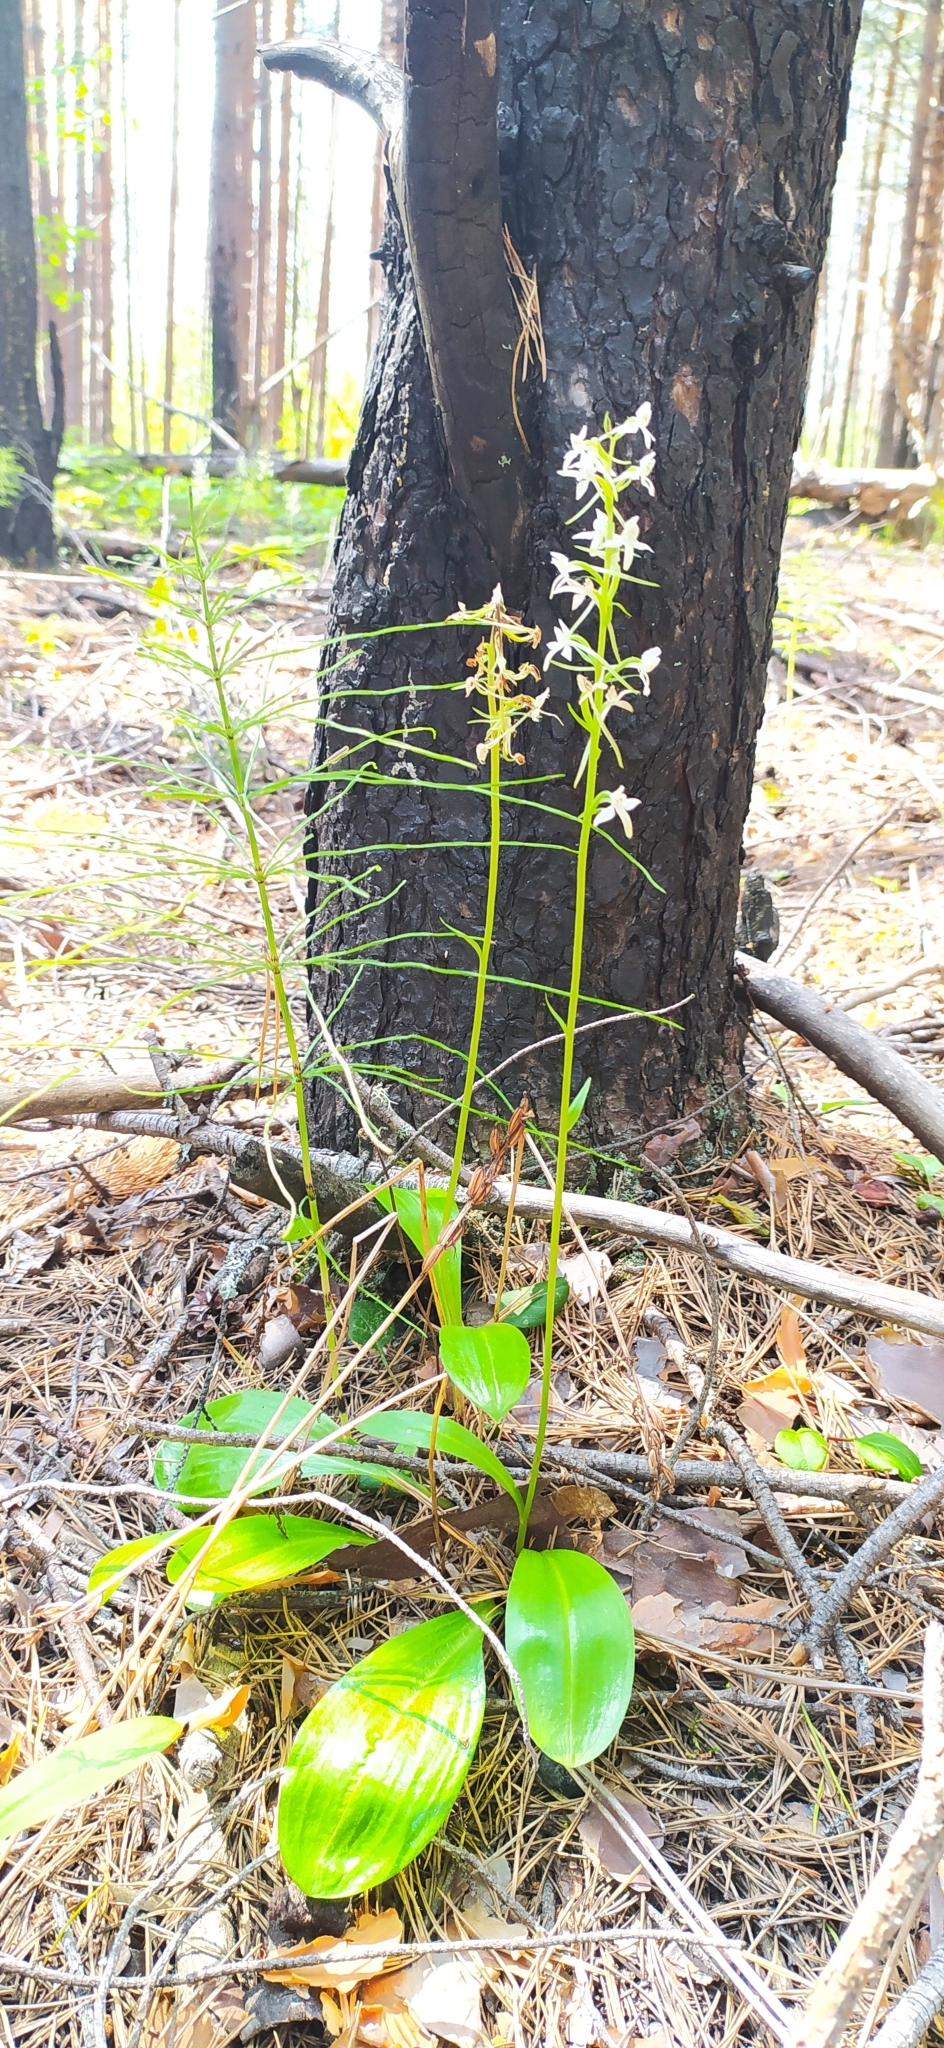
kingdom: Plantae
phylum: Tracheophyta
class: Liliopsida
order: Asparagales
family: Orchidaceae
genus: Platanthera
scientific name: Platanthera bifolia
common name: Lesser butterfly-orchid
